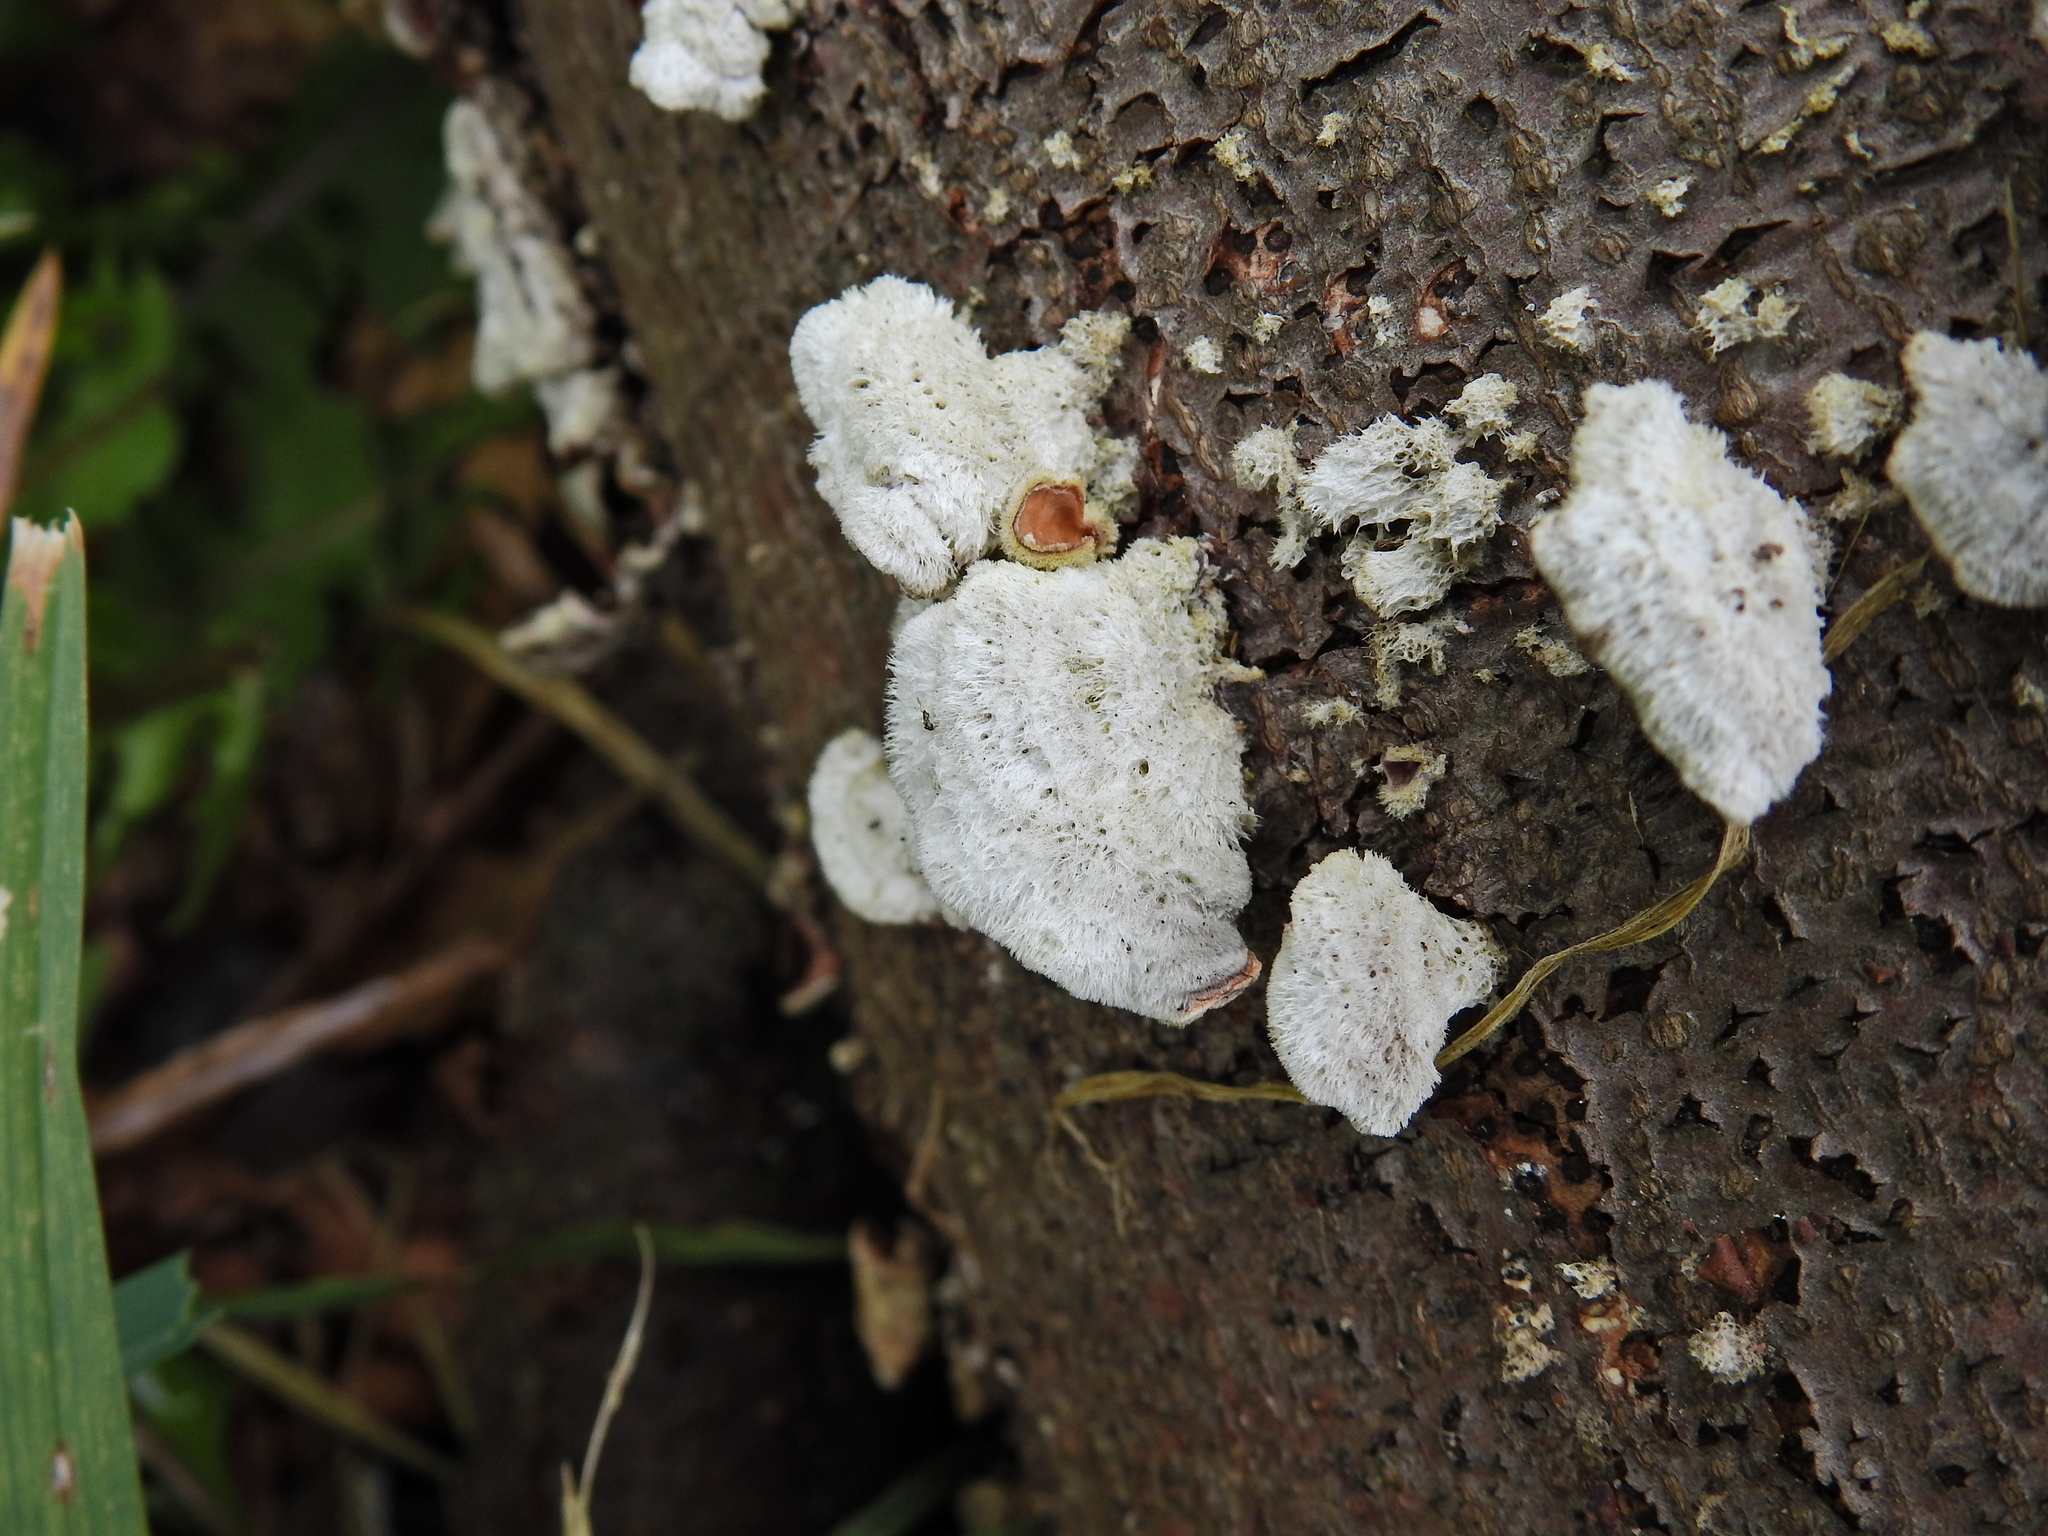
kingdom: Fungi
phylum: Basidiomycota
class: Agaricomycetes
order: Russulales
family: Stereaceae
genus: Stereum
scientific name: Stereum hirsutum
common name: Hairy curtain crust
